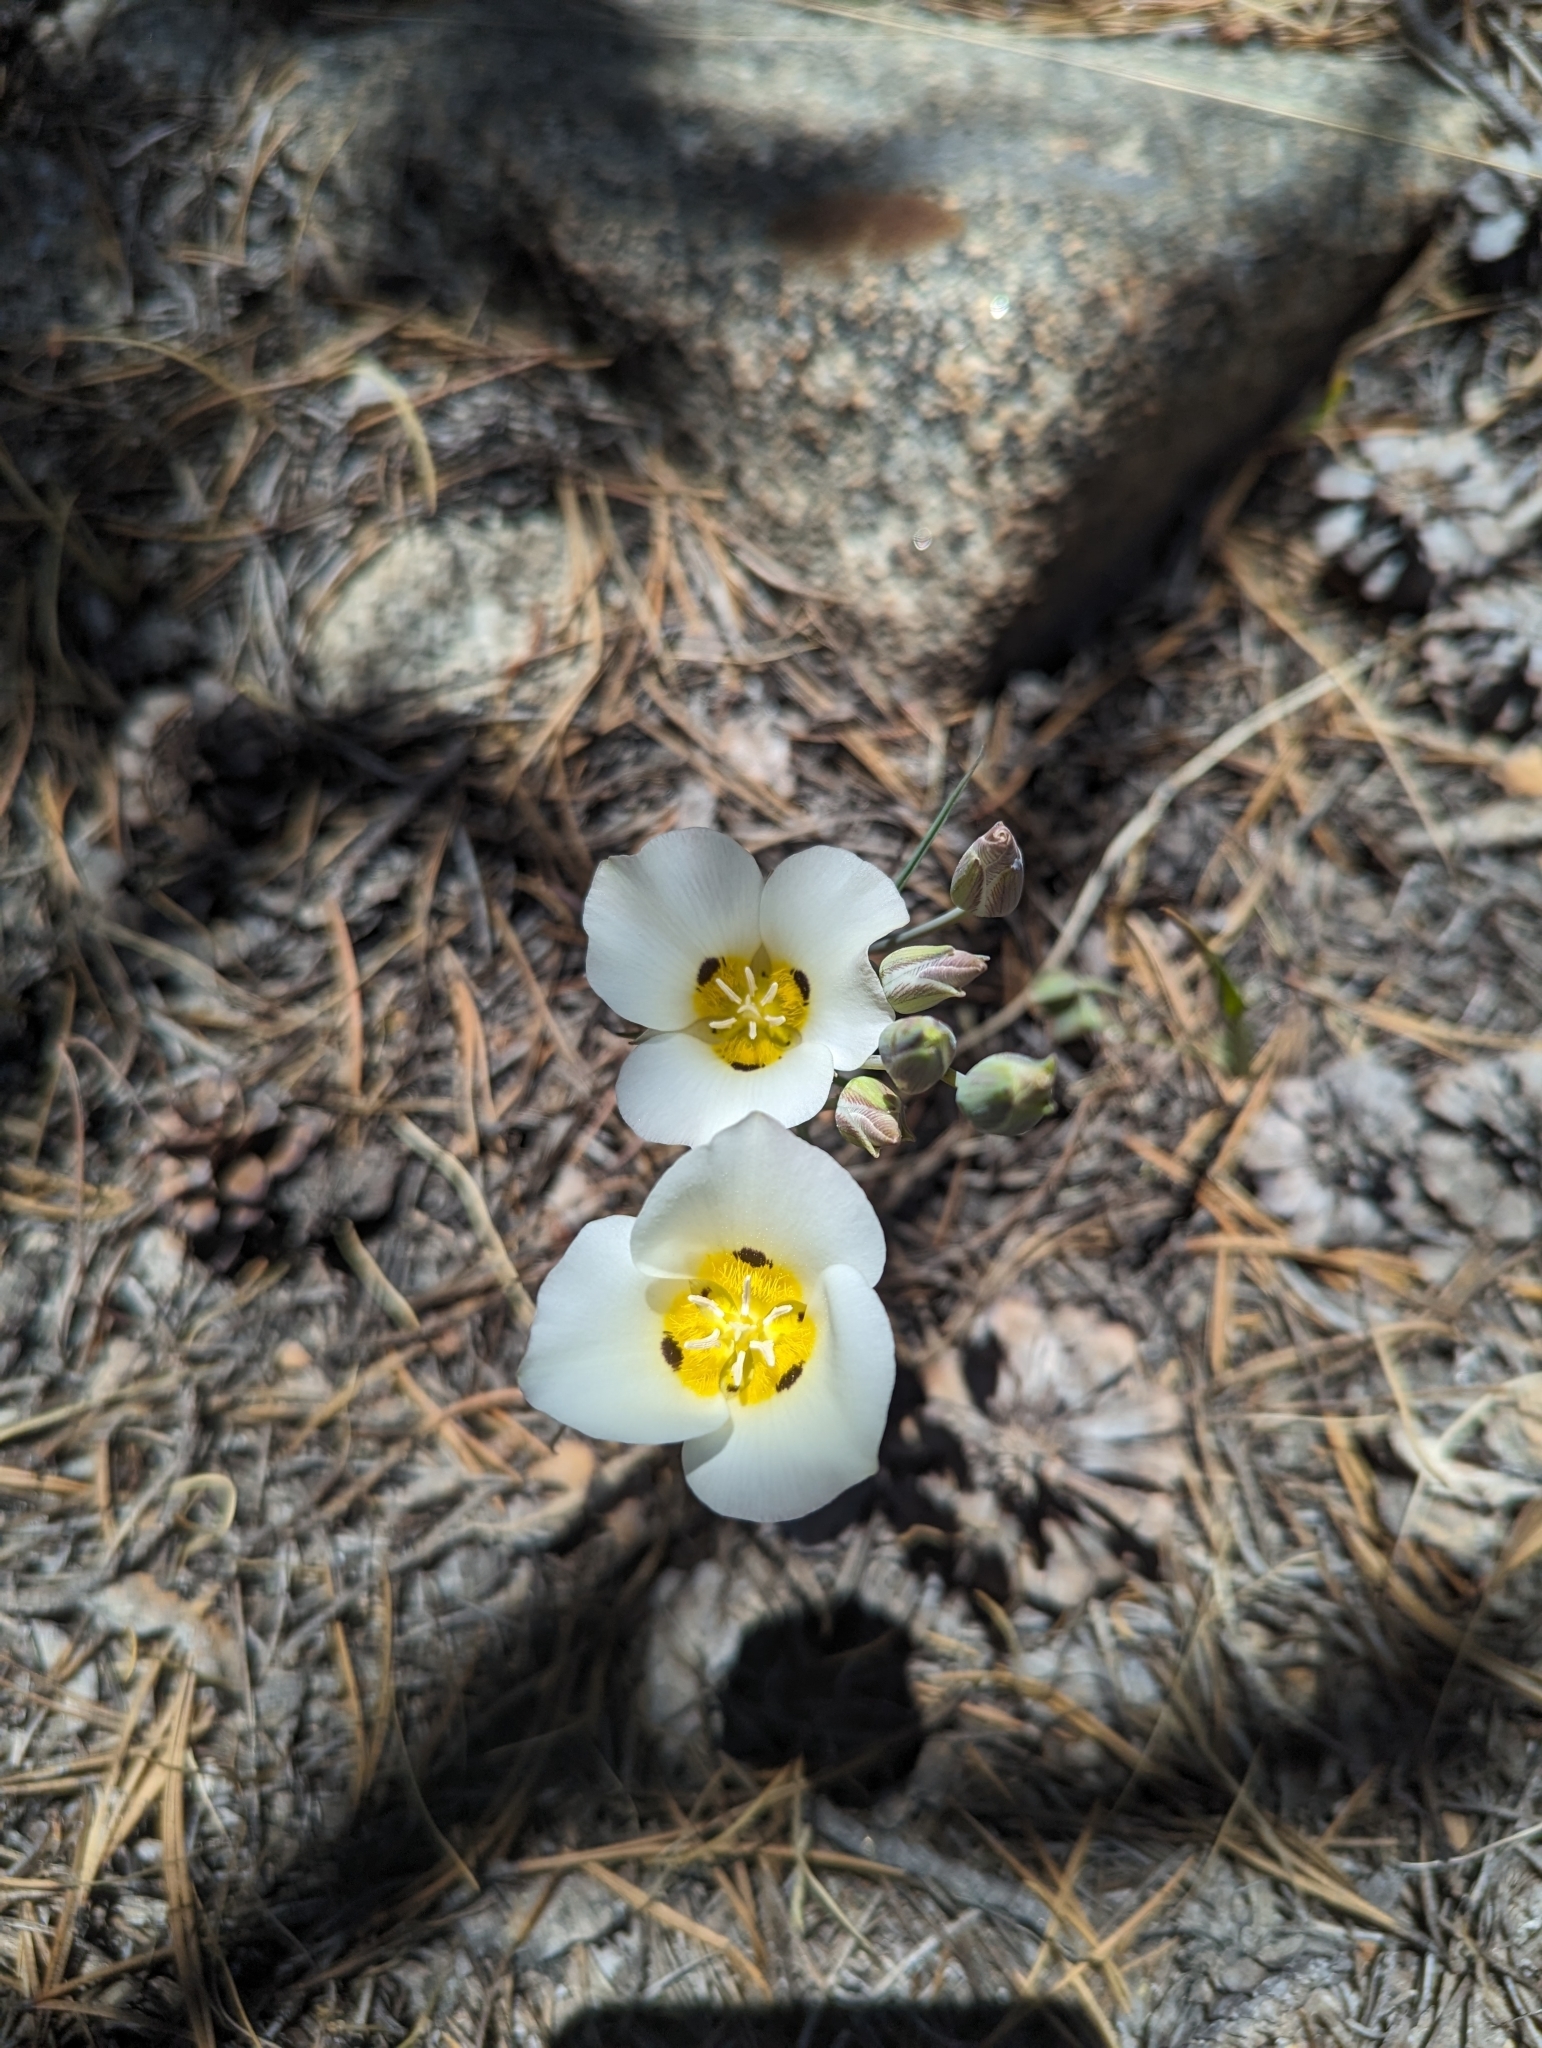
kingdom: Plantae
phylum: Tracheophyta
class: Liliopsida
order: Liliales
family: Liliaceae
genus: Calochortus
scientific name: Calochortus leichtlinii
